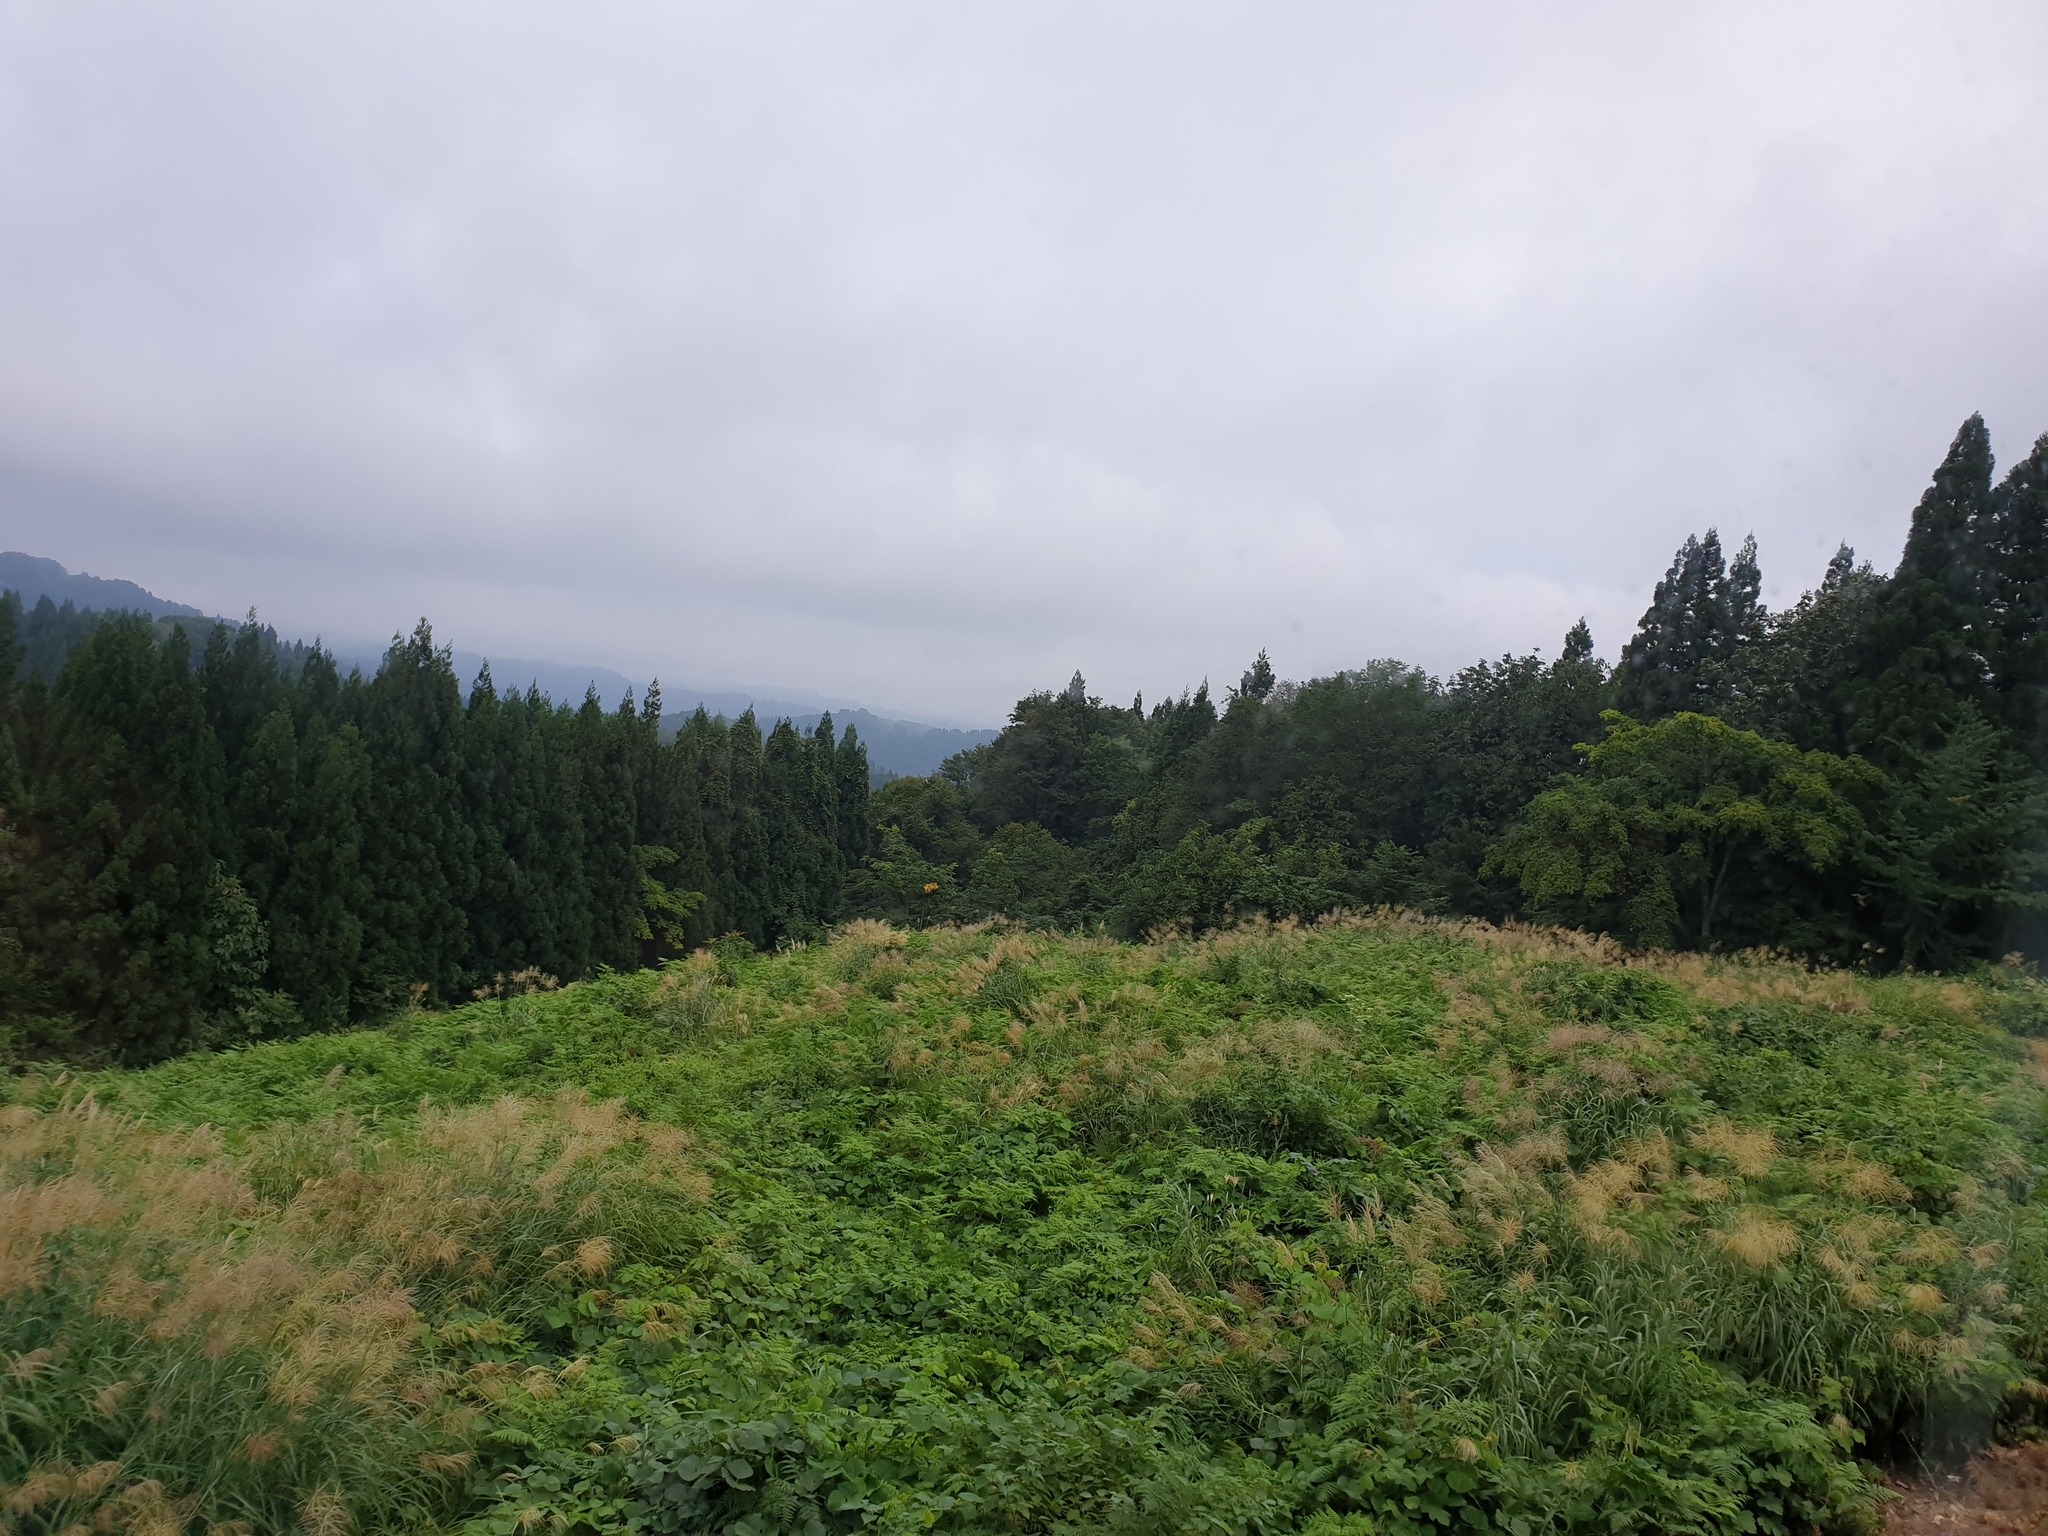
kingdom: Animalia
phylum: Arthropoda
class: Insecta
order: Lepidoptera
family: Saturniidae
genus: Saturnia
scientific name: Saturnia japonica
